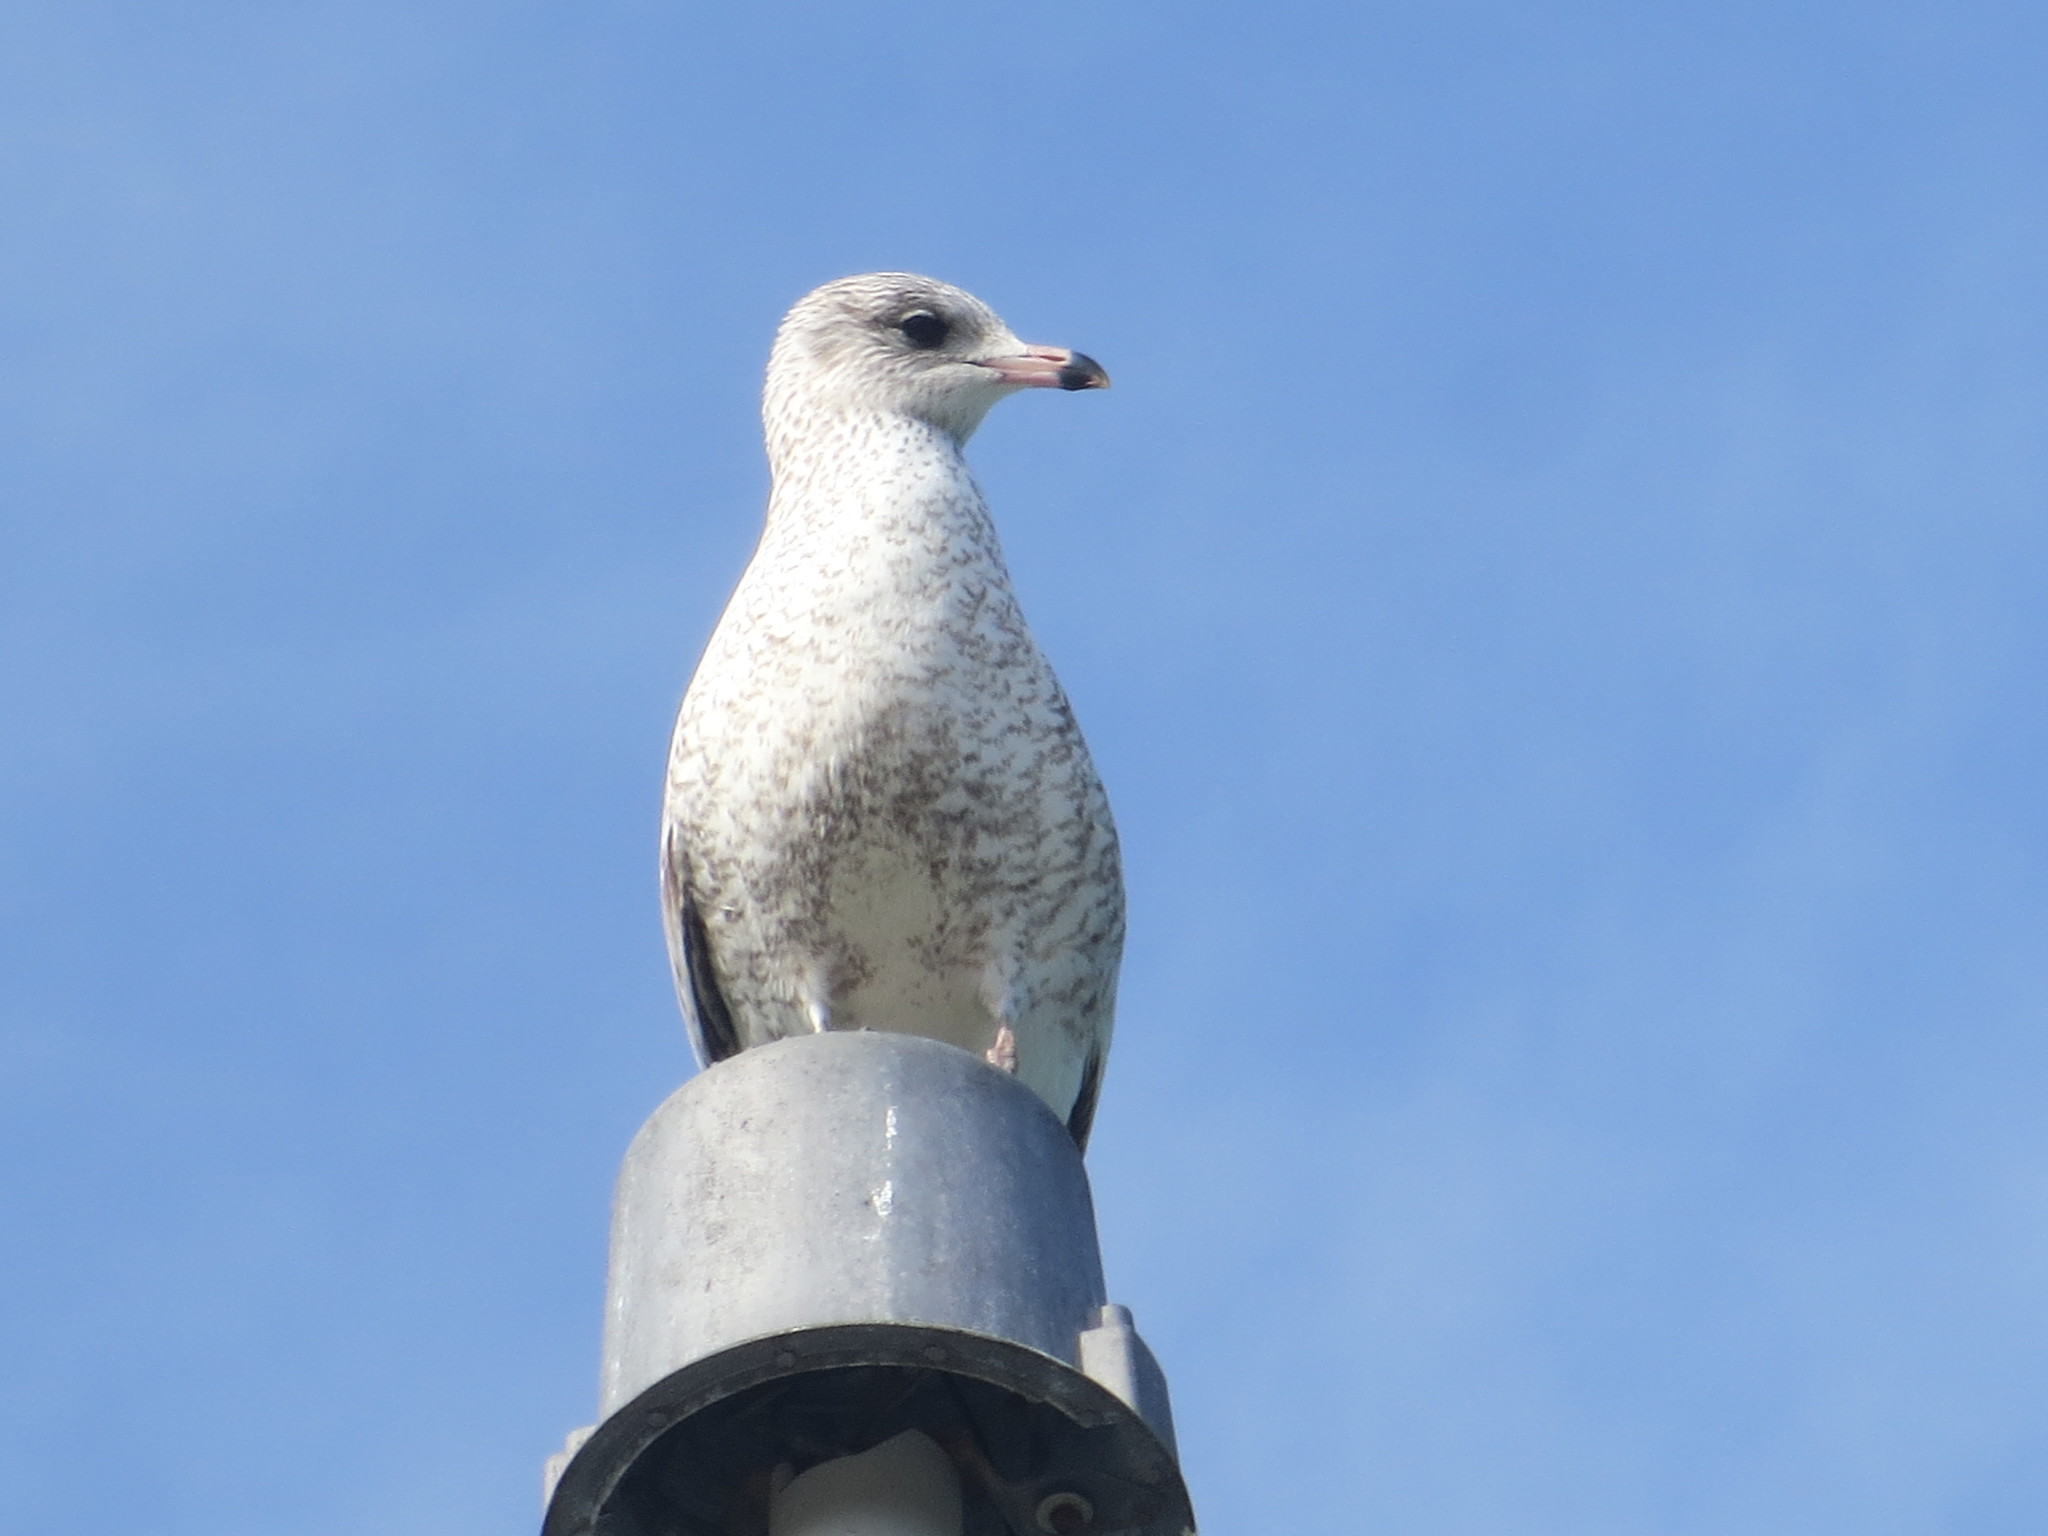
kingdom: Animalia
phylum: Chordata
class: Aves
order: Charadriiformes
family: Laridae
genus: Larus
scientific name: Larus delawarensis
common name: Ring-billed gull
